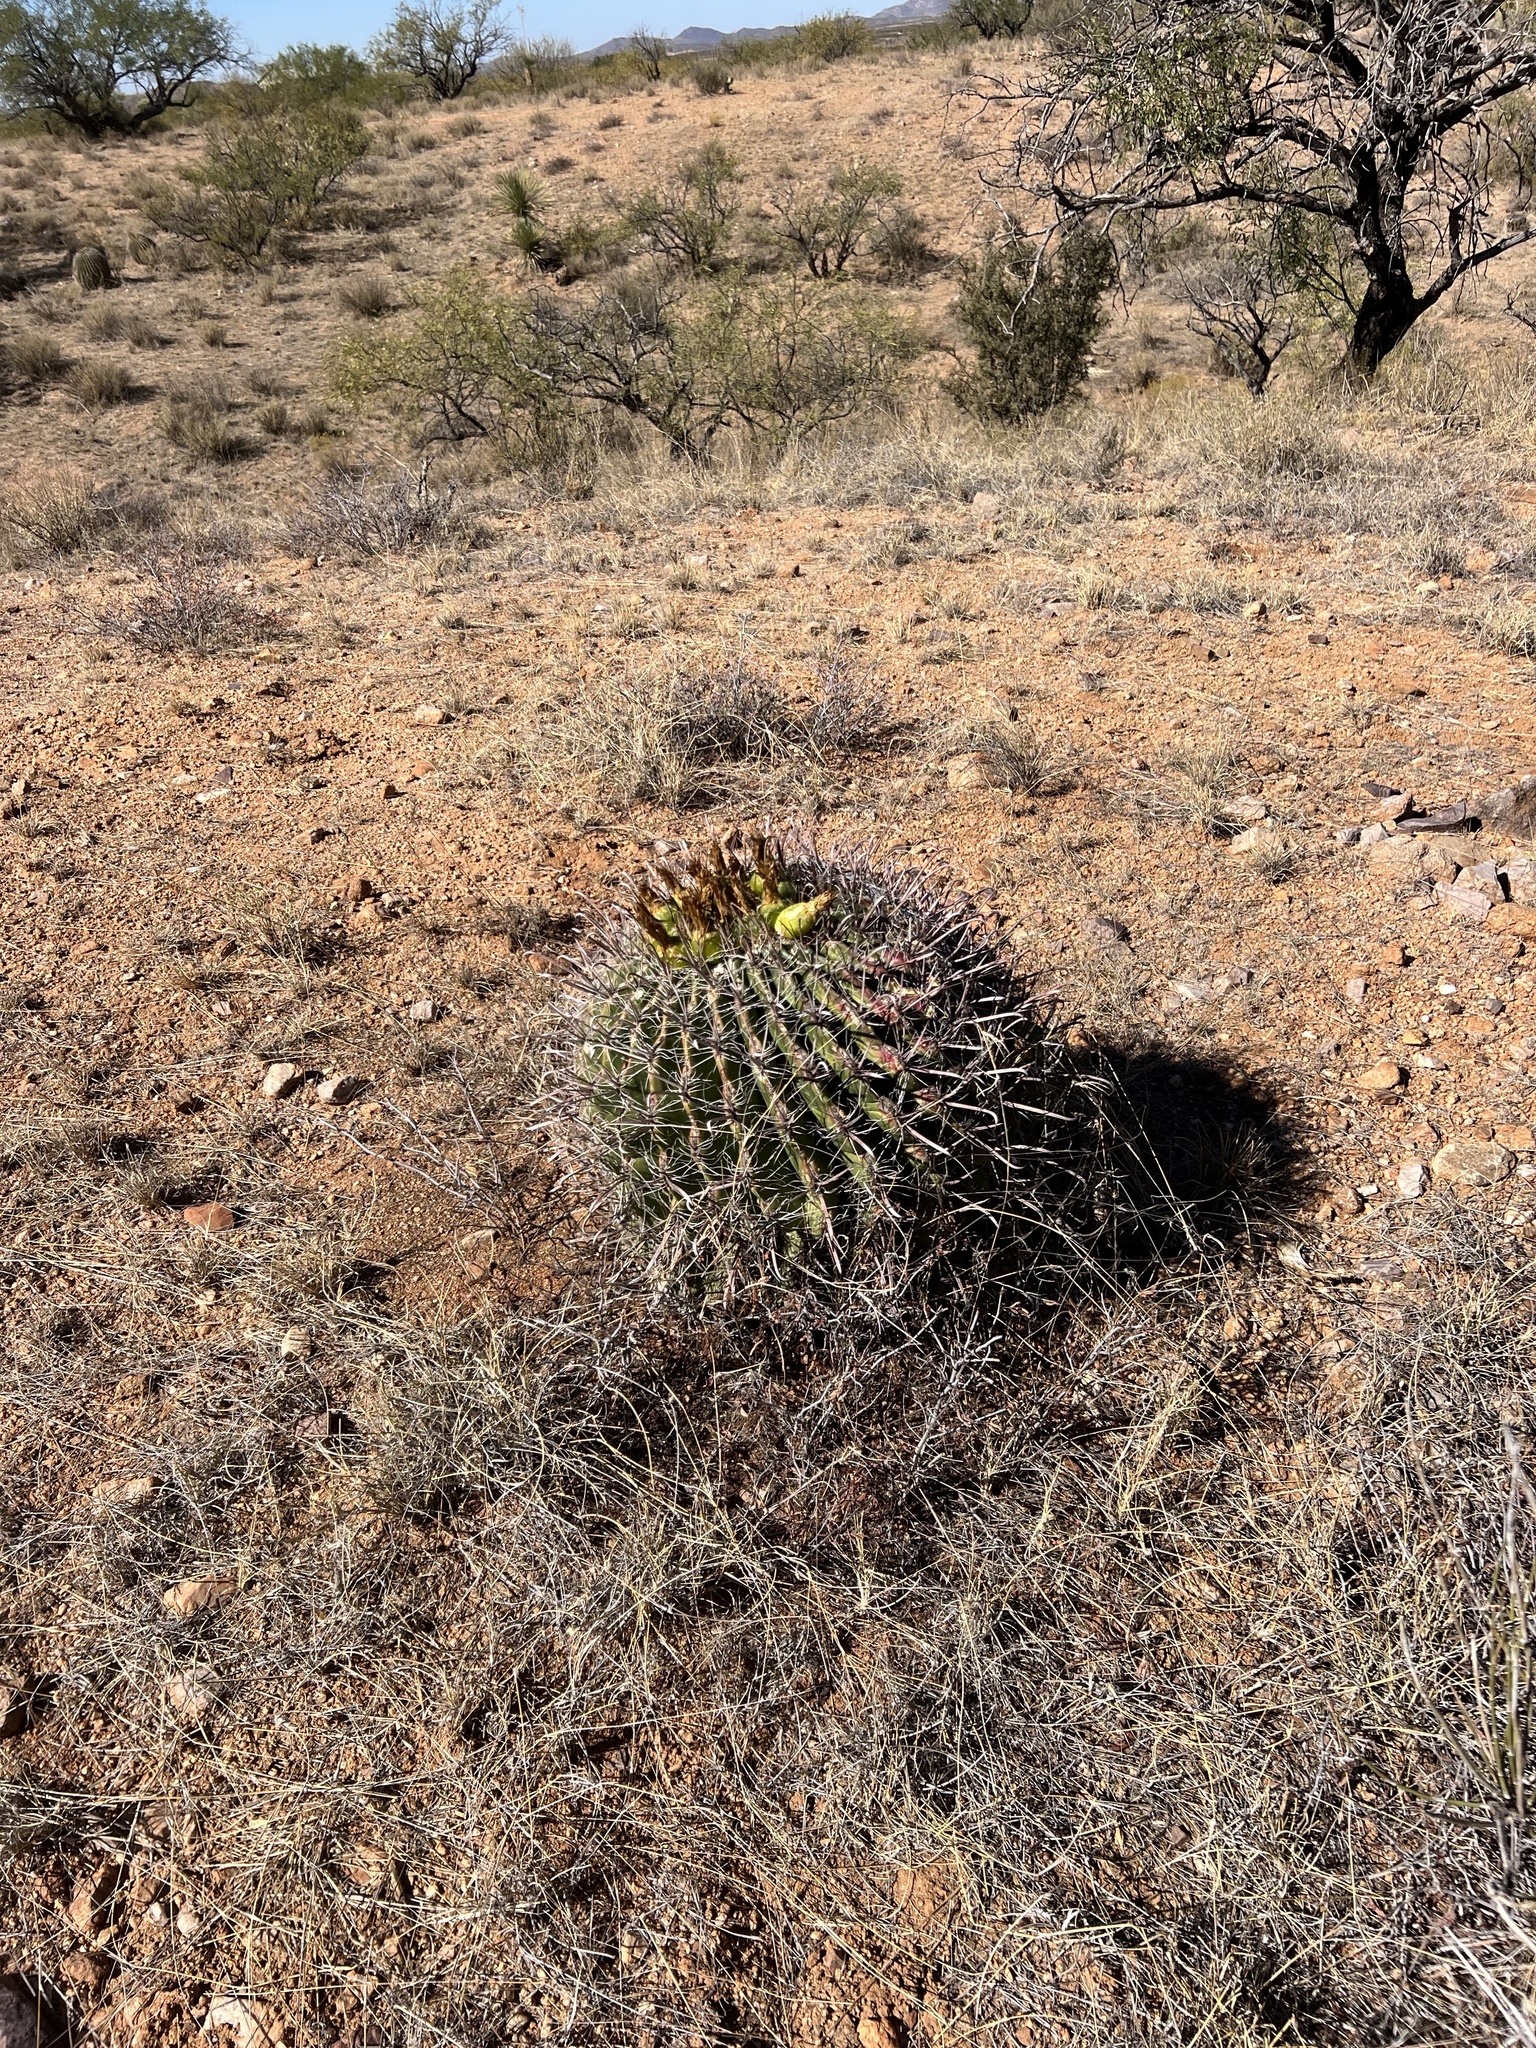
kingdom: Plantae
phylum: Tracheophyta
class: Magnoliopsida
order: Caryophyllales
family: Cactaceae
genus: Ferocactus
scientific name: Ferocactus wislizeni
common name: Candy barrel cactus
